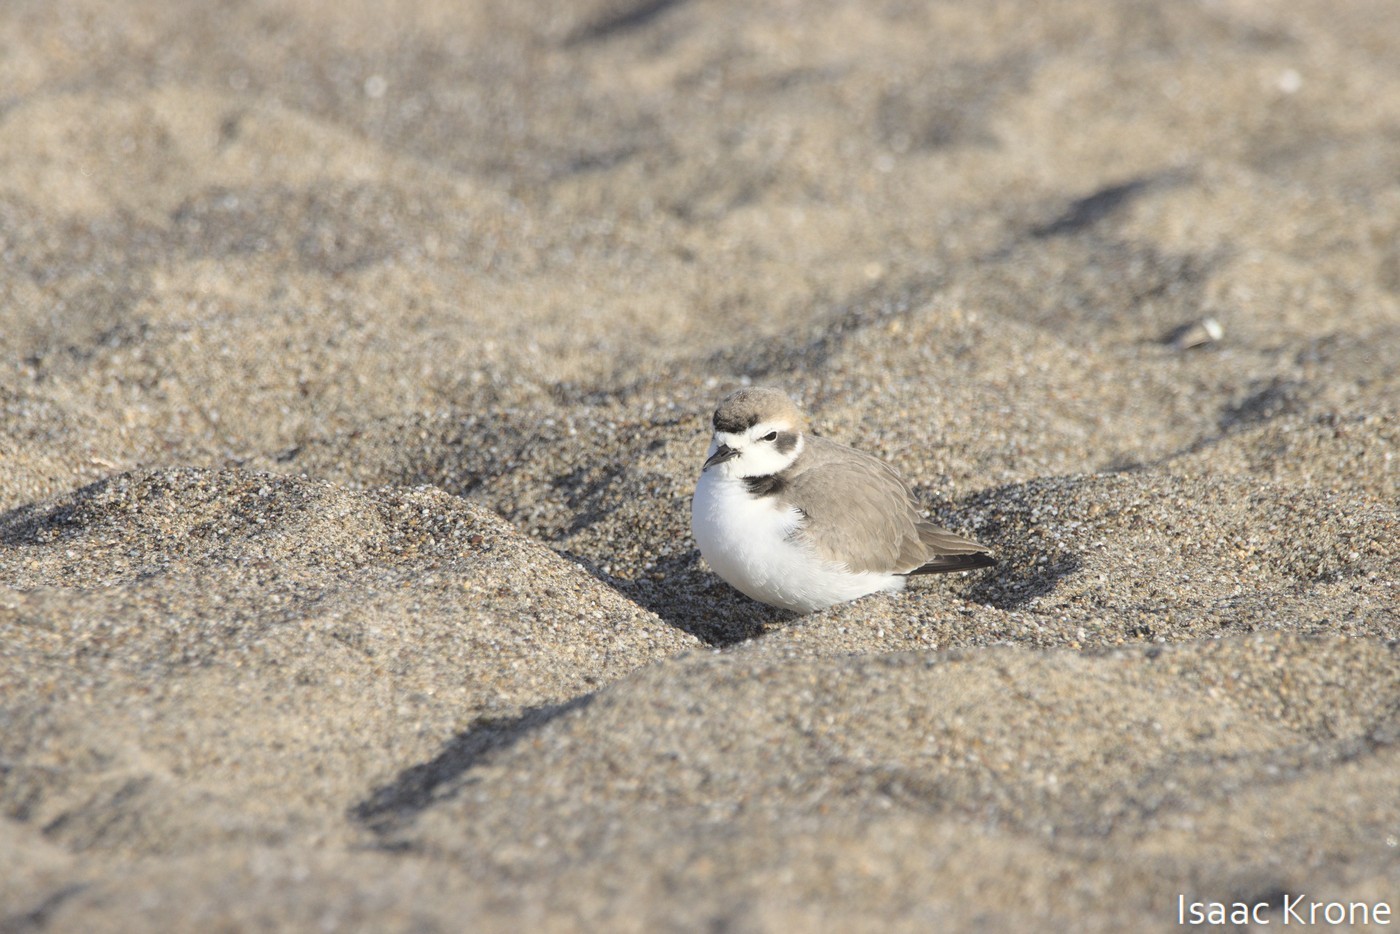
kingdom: Animalia
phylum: Chordata
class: Aves
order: Charadriiformes
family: Charadriidae
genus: Anarhynchus
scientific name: Anarhynchus
